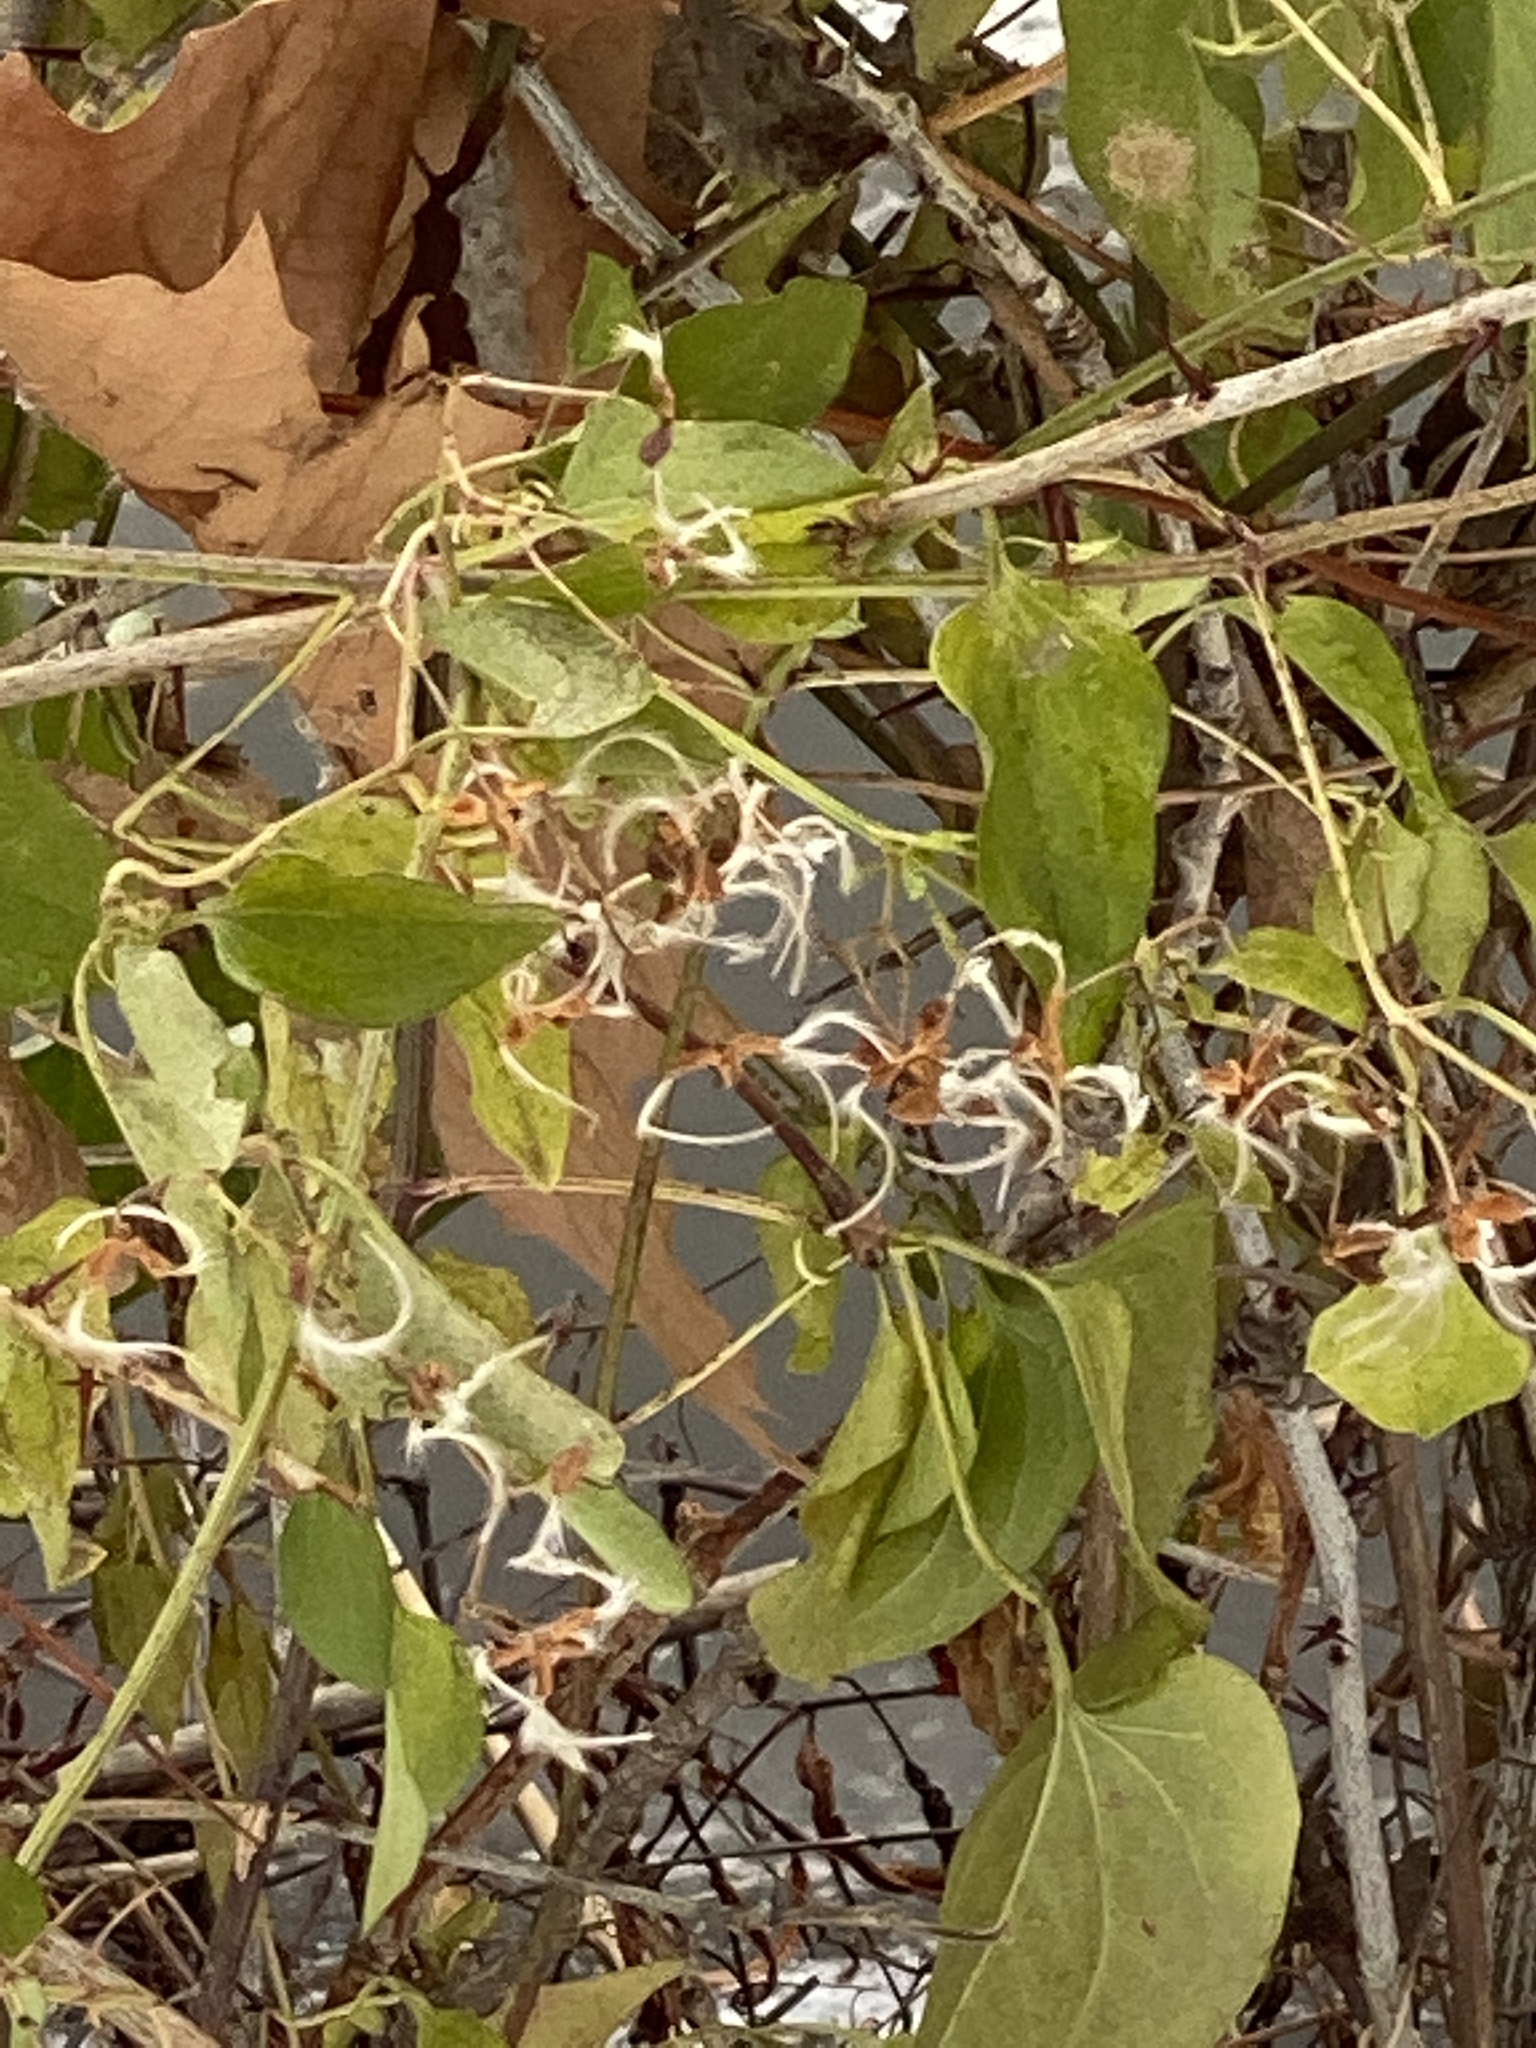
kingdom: Plantae
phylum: Tracheophyta
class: Magnoliopsida
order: Ranunculales
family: Ranunculaceae
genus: Clematis
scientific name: Clematis terniflora
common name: Sweet autumn clematis
